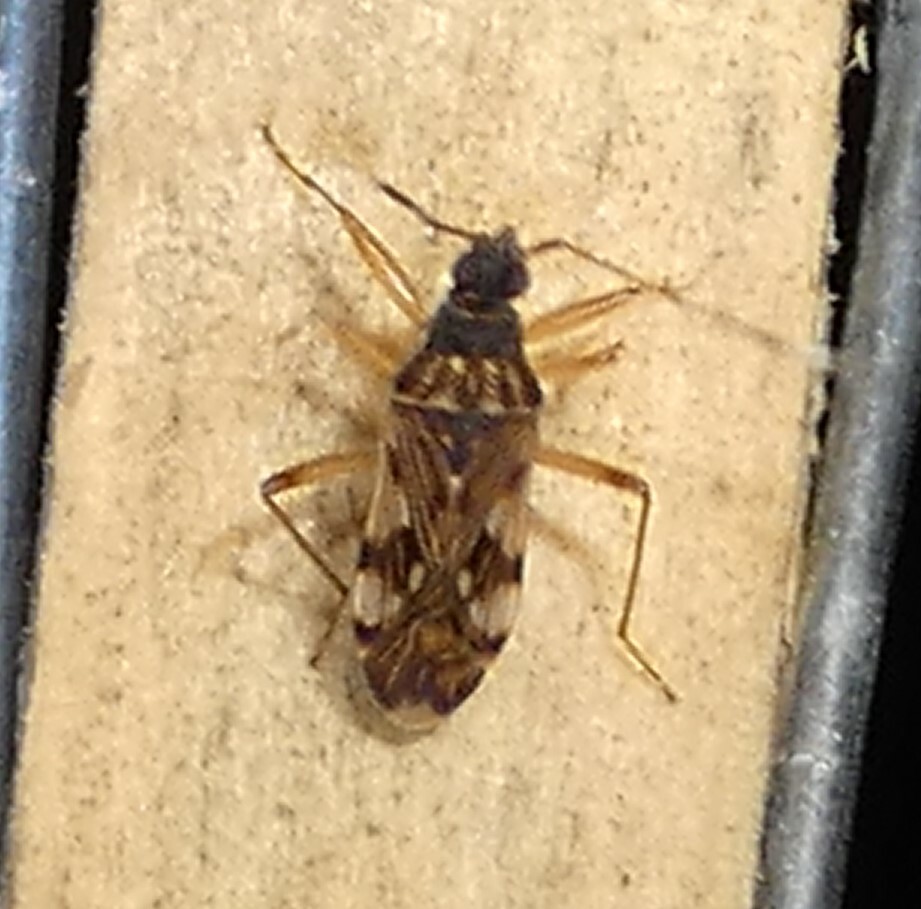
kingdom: Animalia
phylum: Arthropoda
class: Insecta
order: Hemiptera
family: Rhyparochromidae
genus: Ozophora
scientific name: Ozophora picturata
